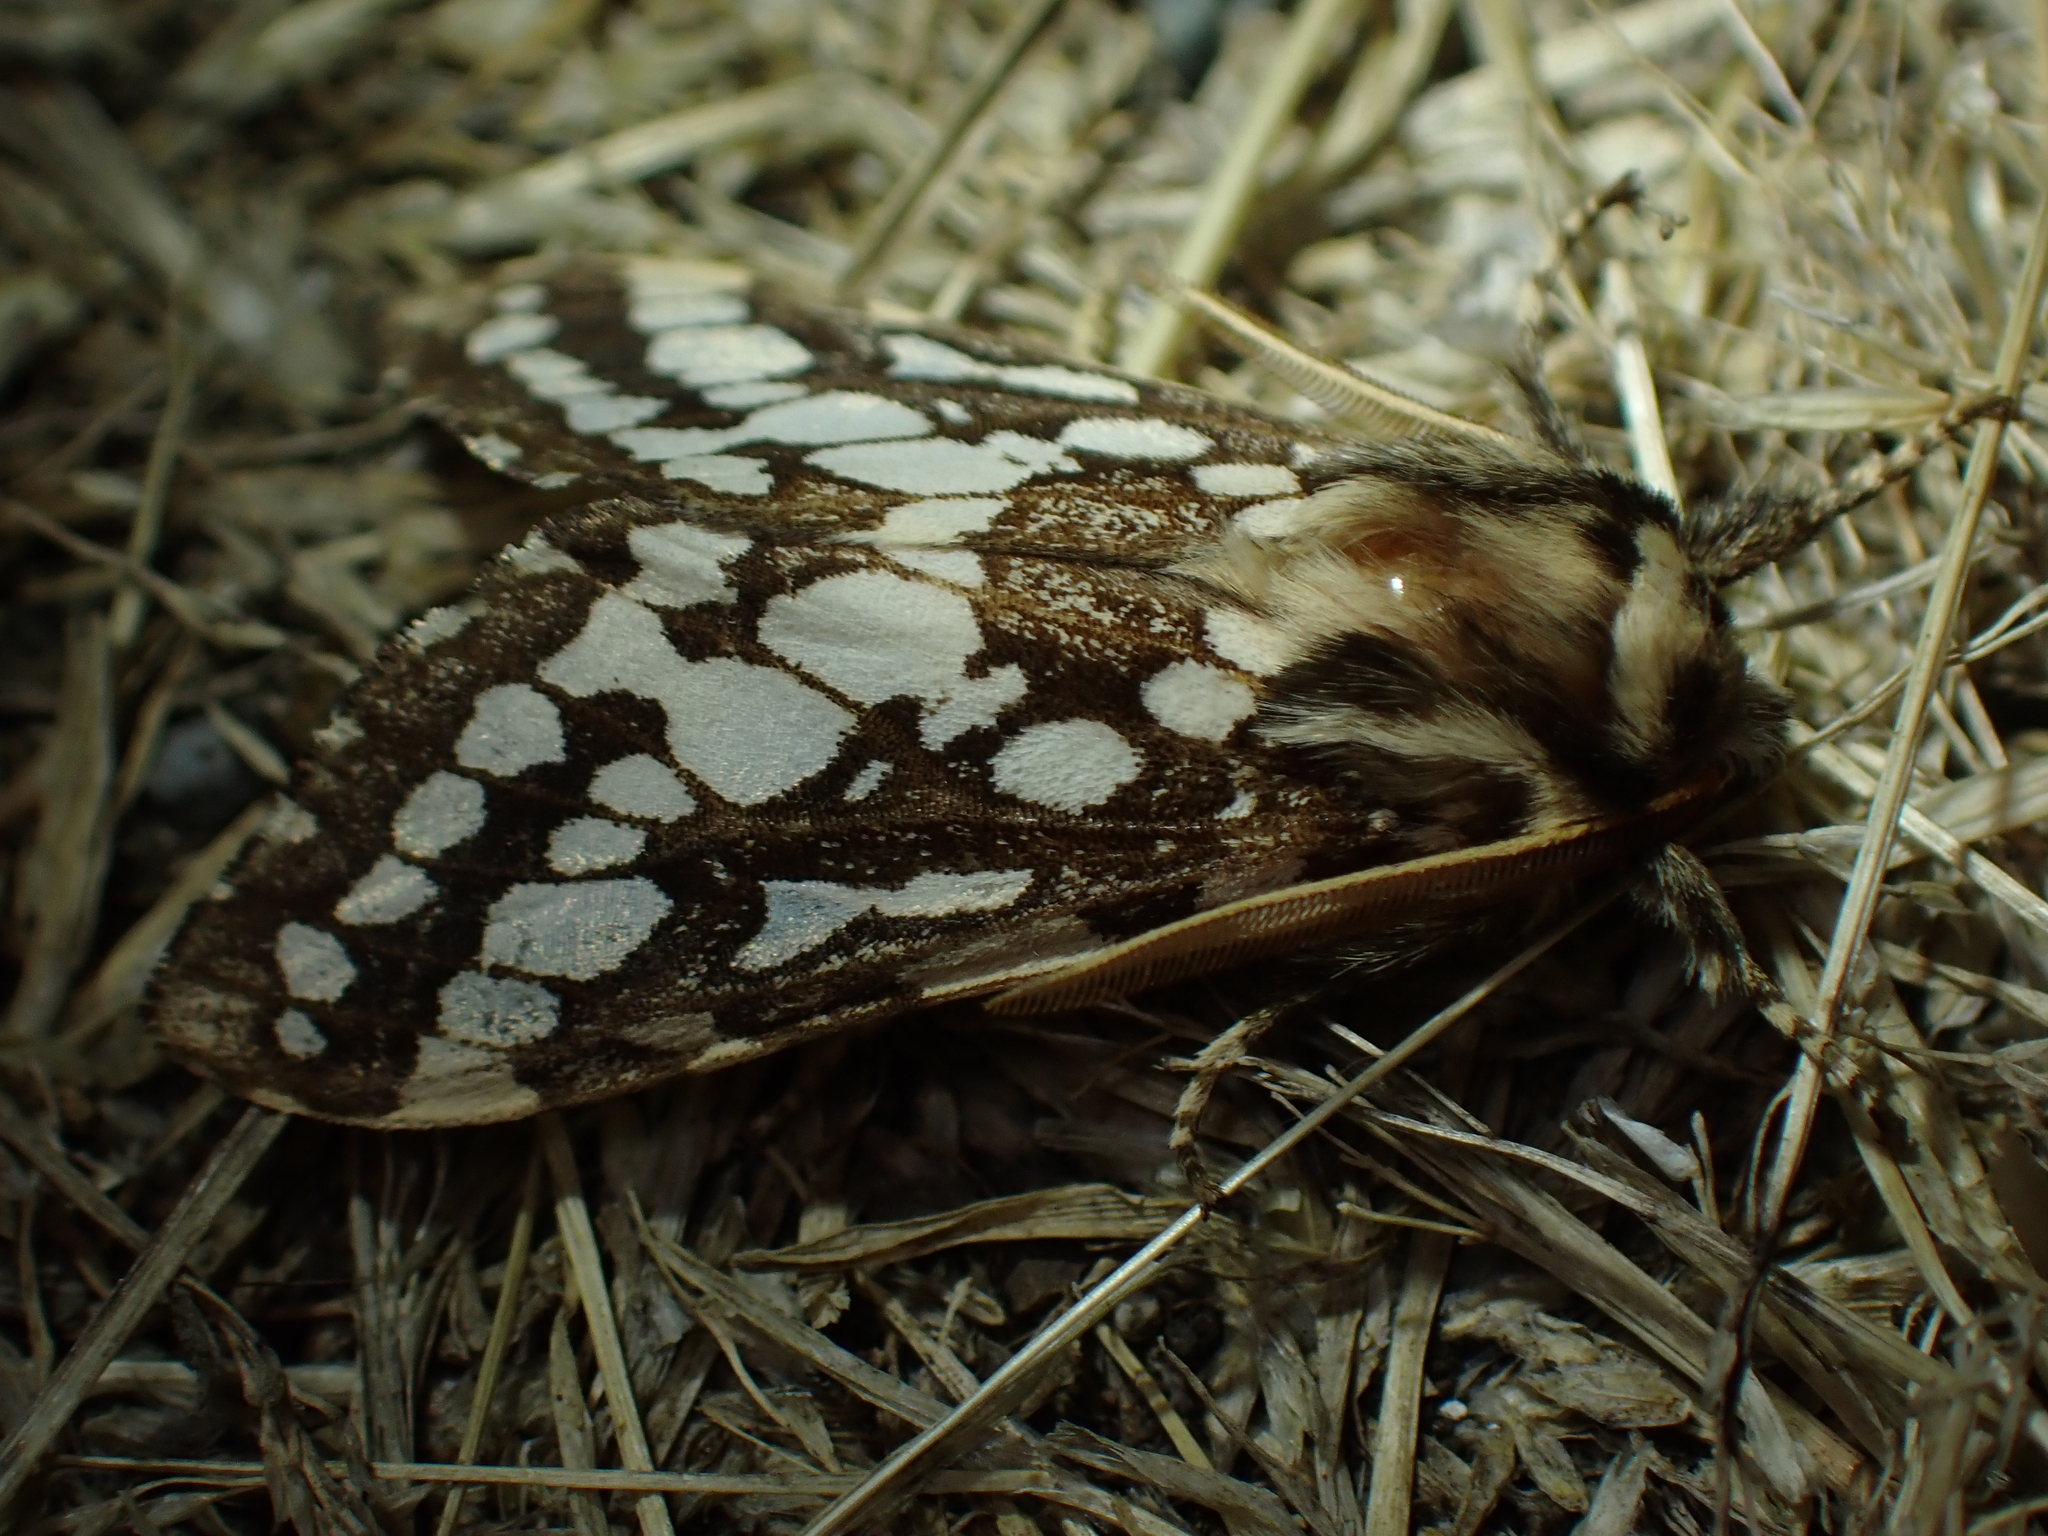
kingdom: Animalia
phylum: Arthropoda
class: Insecta
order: Lepidoptera
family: Erebidae
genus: Lophocampa
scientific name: Lophocampa argentata
